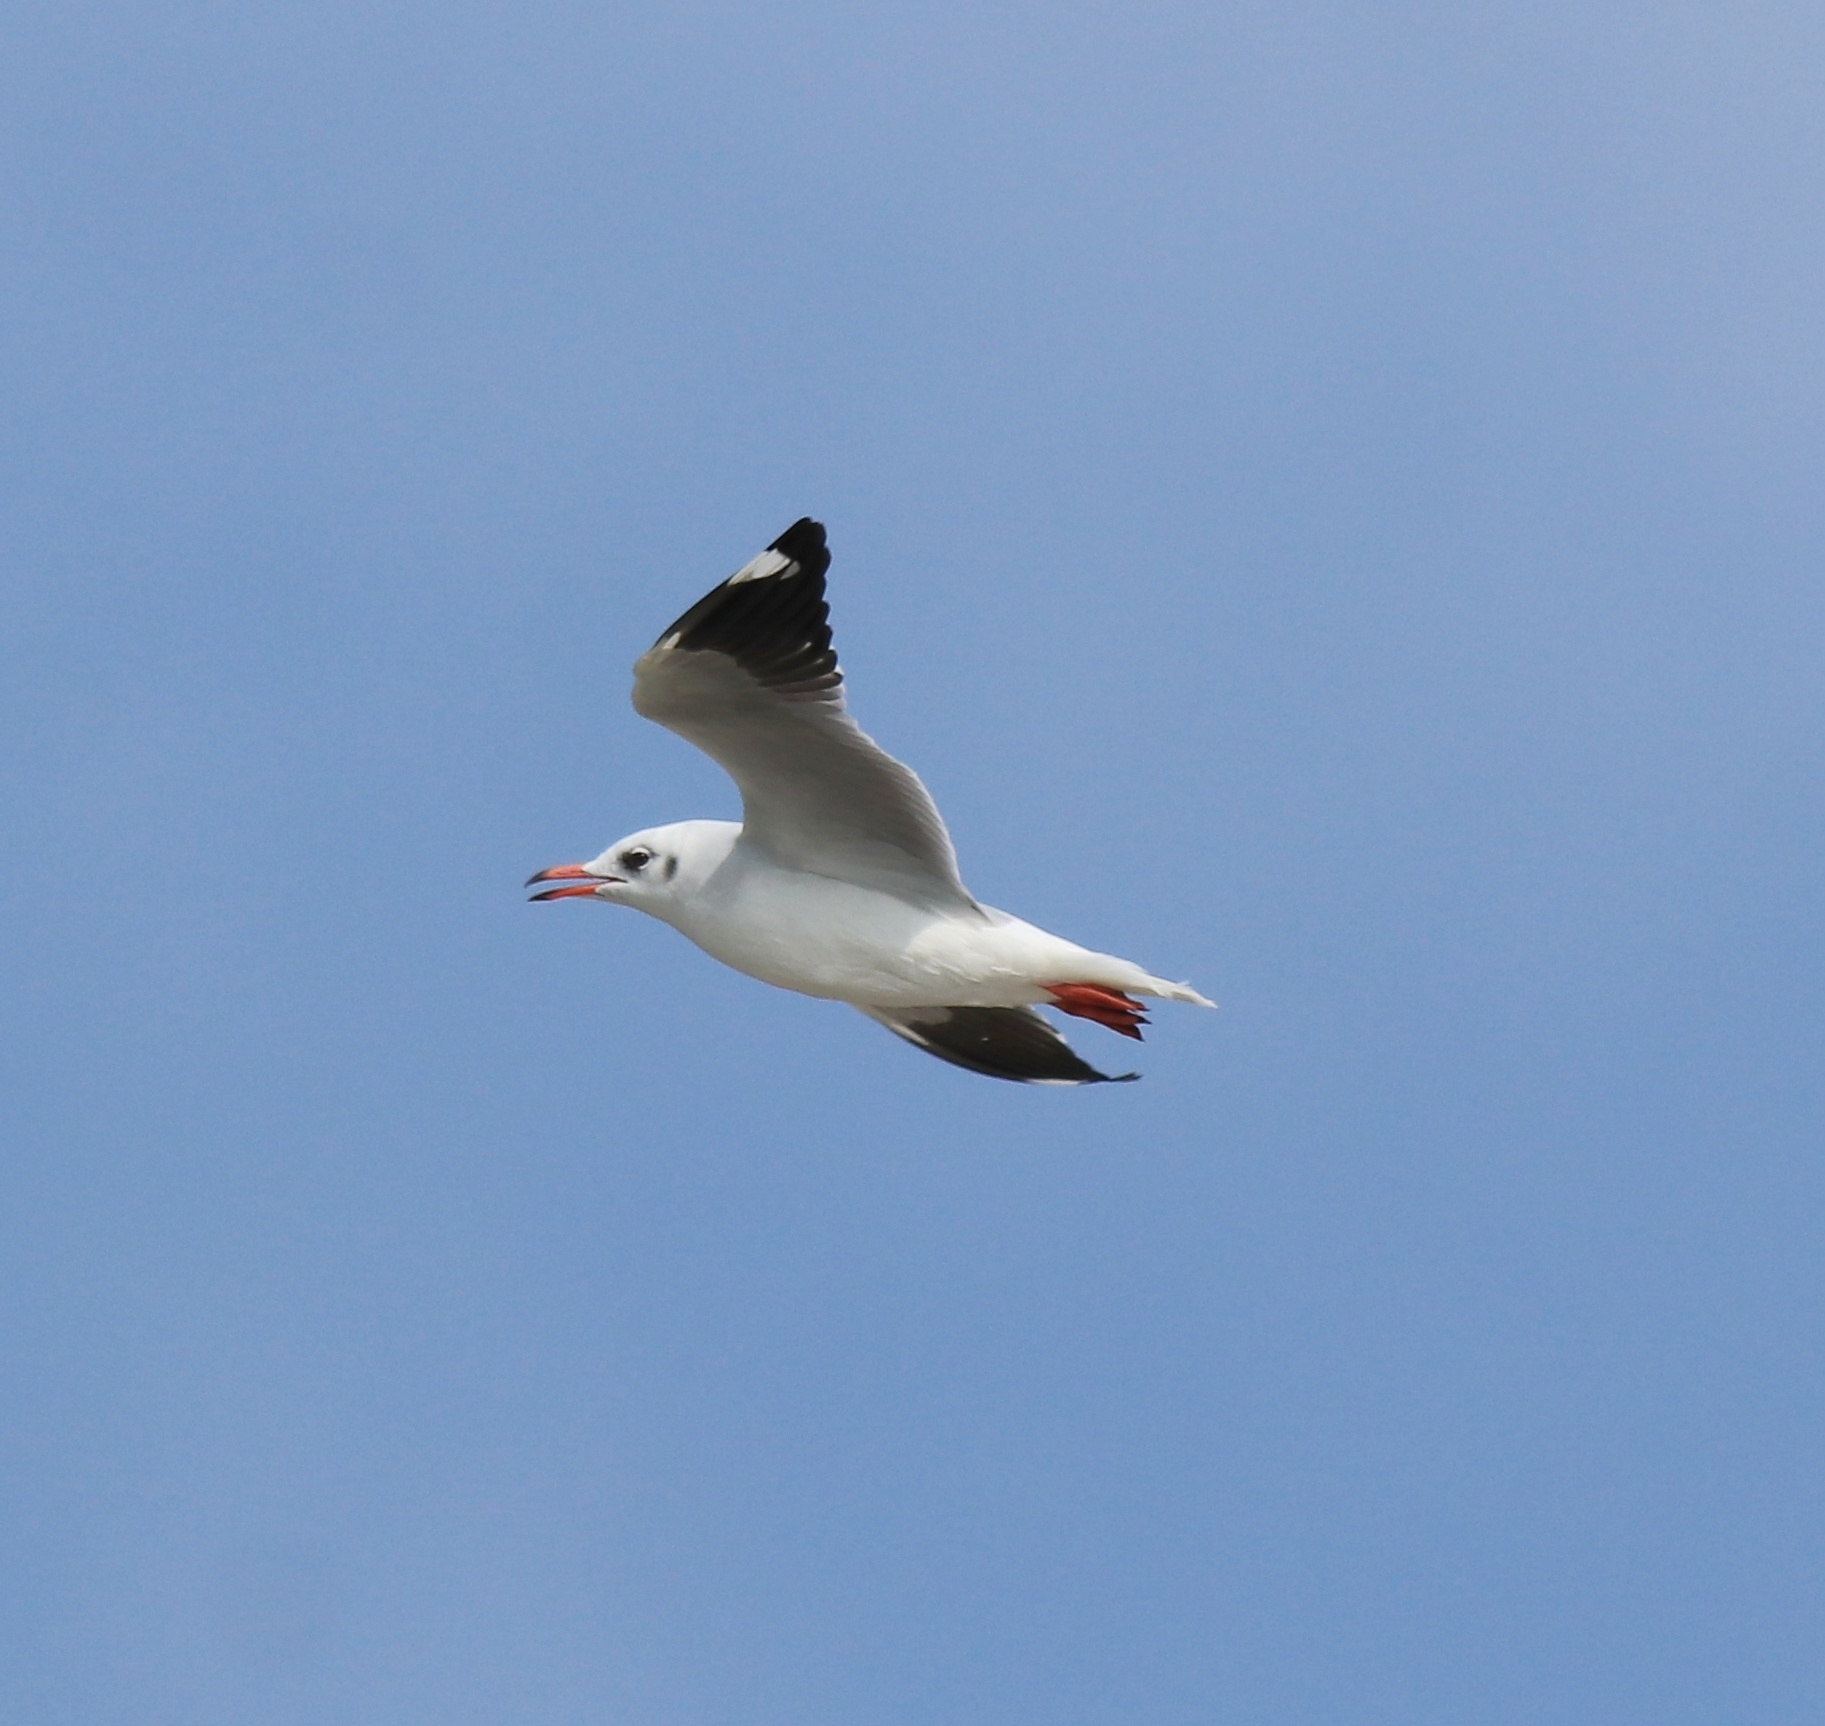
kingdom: Animalia
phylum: Chordata
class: Aves
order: Charadriiformes
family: Laridae
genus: Chroicocephalus
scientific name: Chroicocephalus brunnicephalus
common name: Brown-headed gull
